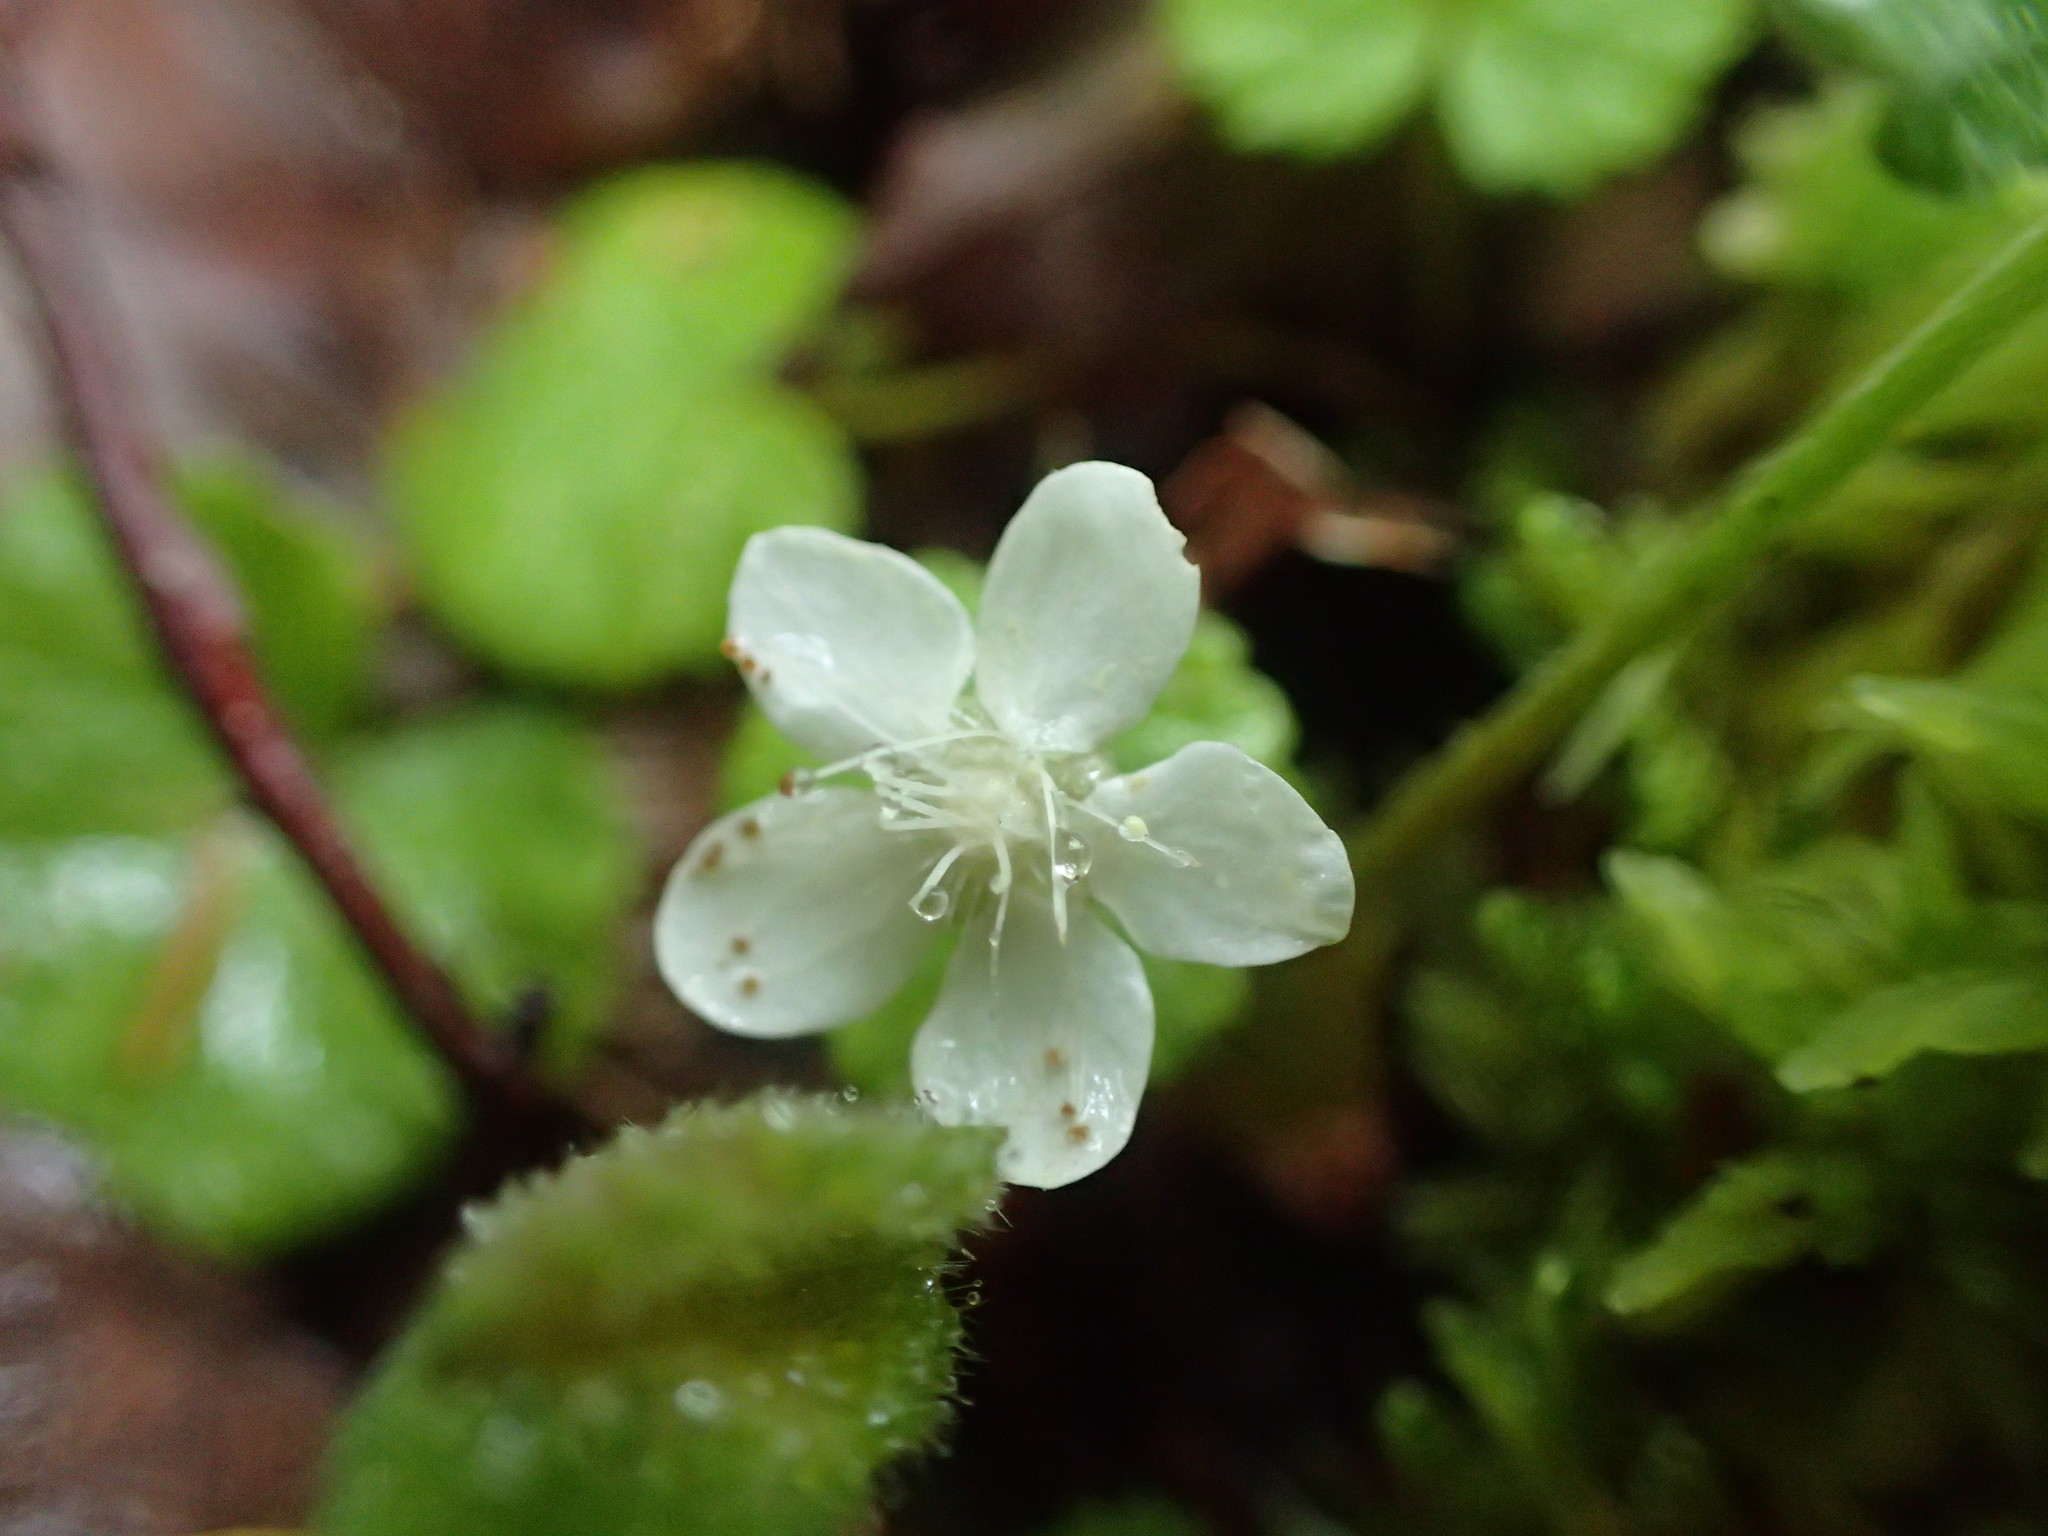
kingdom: Plantae
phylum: Tracheophyta
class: Magnoliopsida
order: Rosales
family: Rosaceae
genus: Dalibarda
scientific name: Dalibarda repens
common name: Dewdrop
